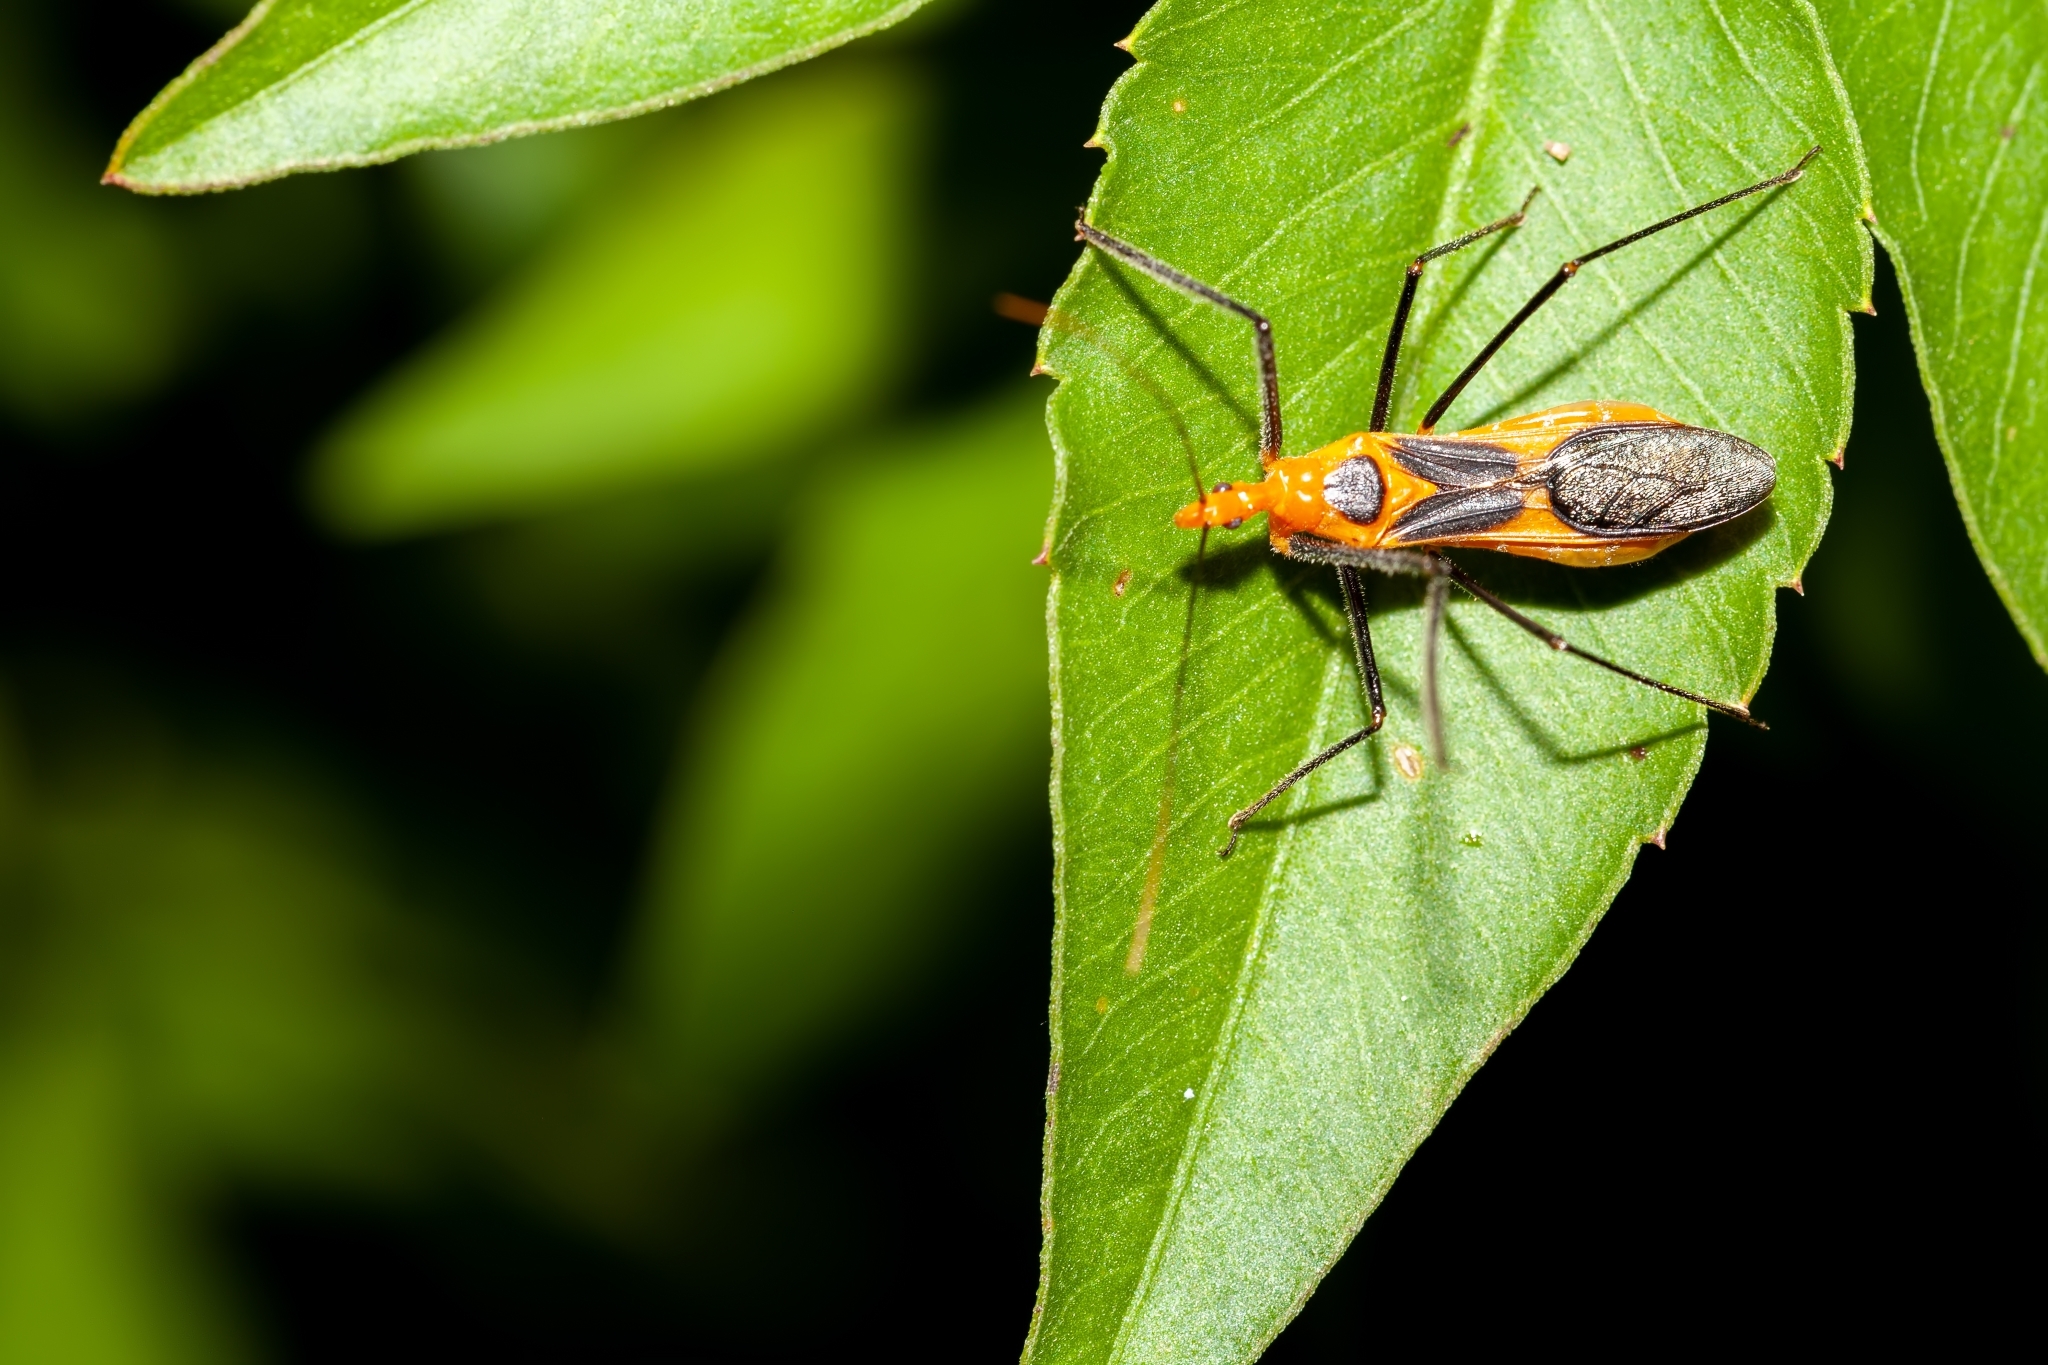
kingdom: Animalia
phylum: Arthropoda
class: Insecta
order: Hemiptera
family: Reduviidae
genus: Zelus
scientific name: Zelus longipes
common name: Milkweed assassin bug
